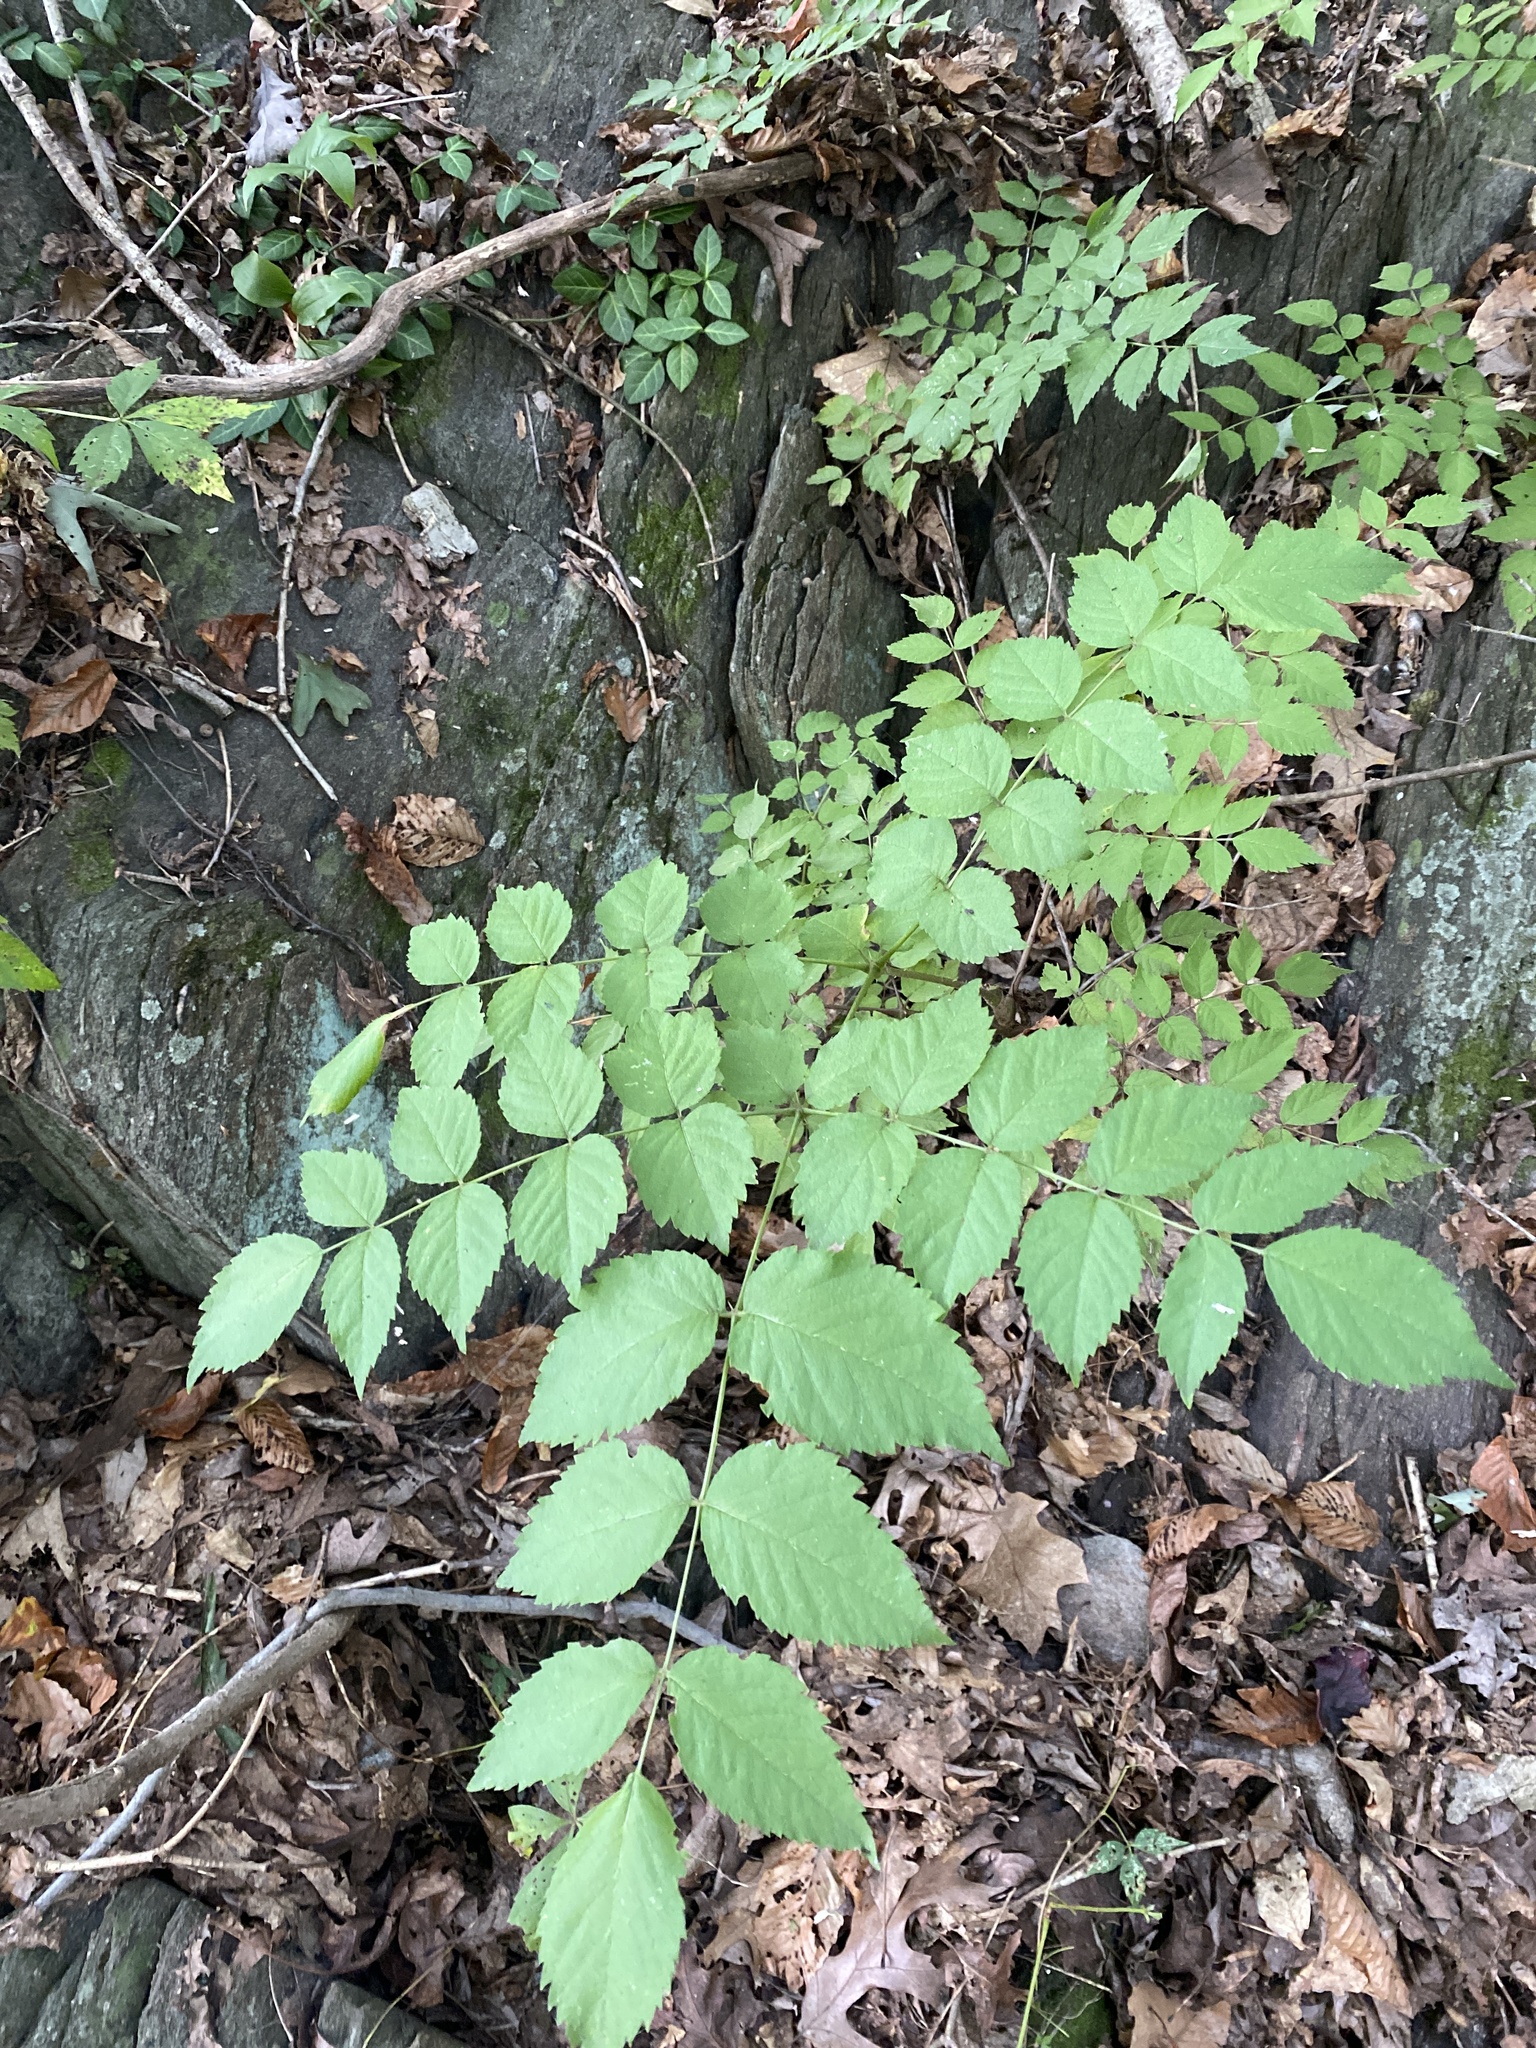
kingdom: Plantae
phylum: Tracheophyta
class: Magnoliopsida
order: Apiales
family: Araliaceae
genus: Aralia
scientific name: Aralia spinosa
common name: Hercules'-club
